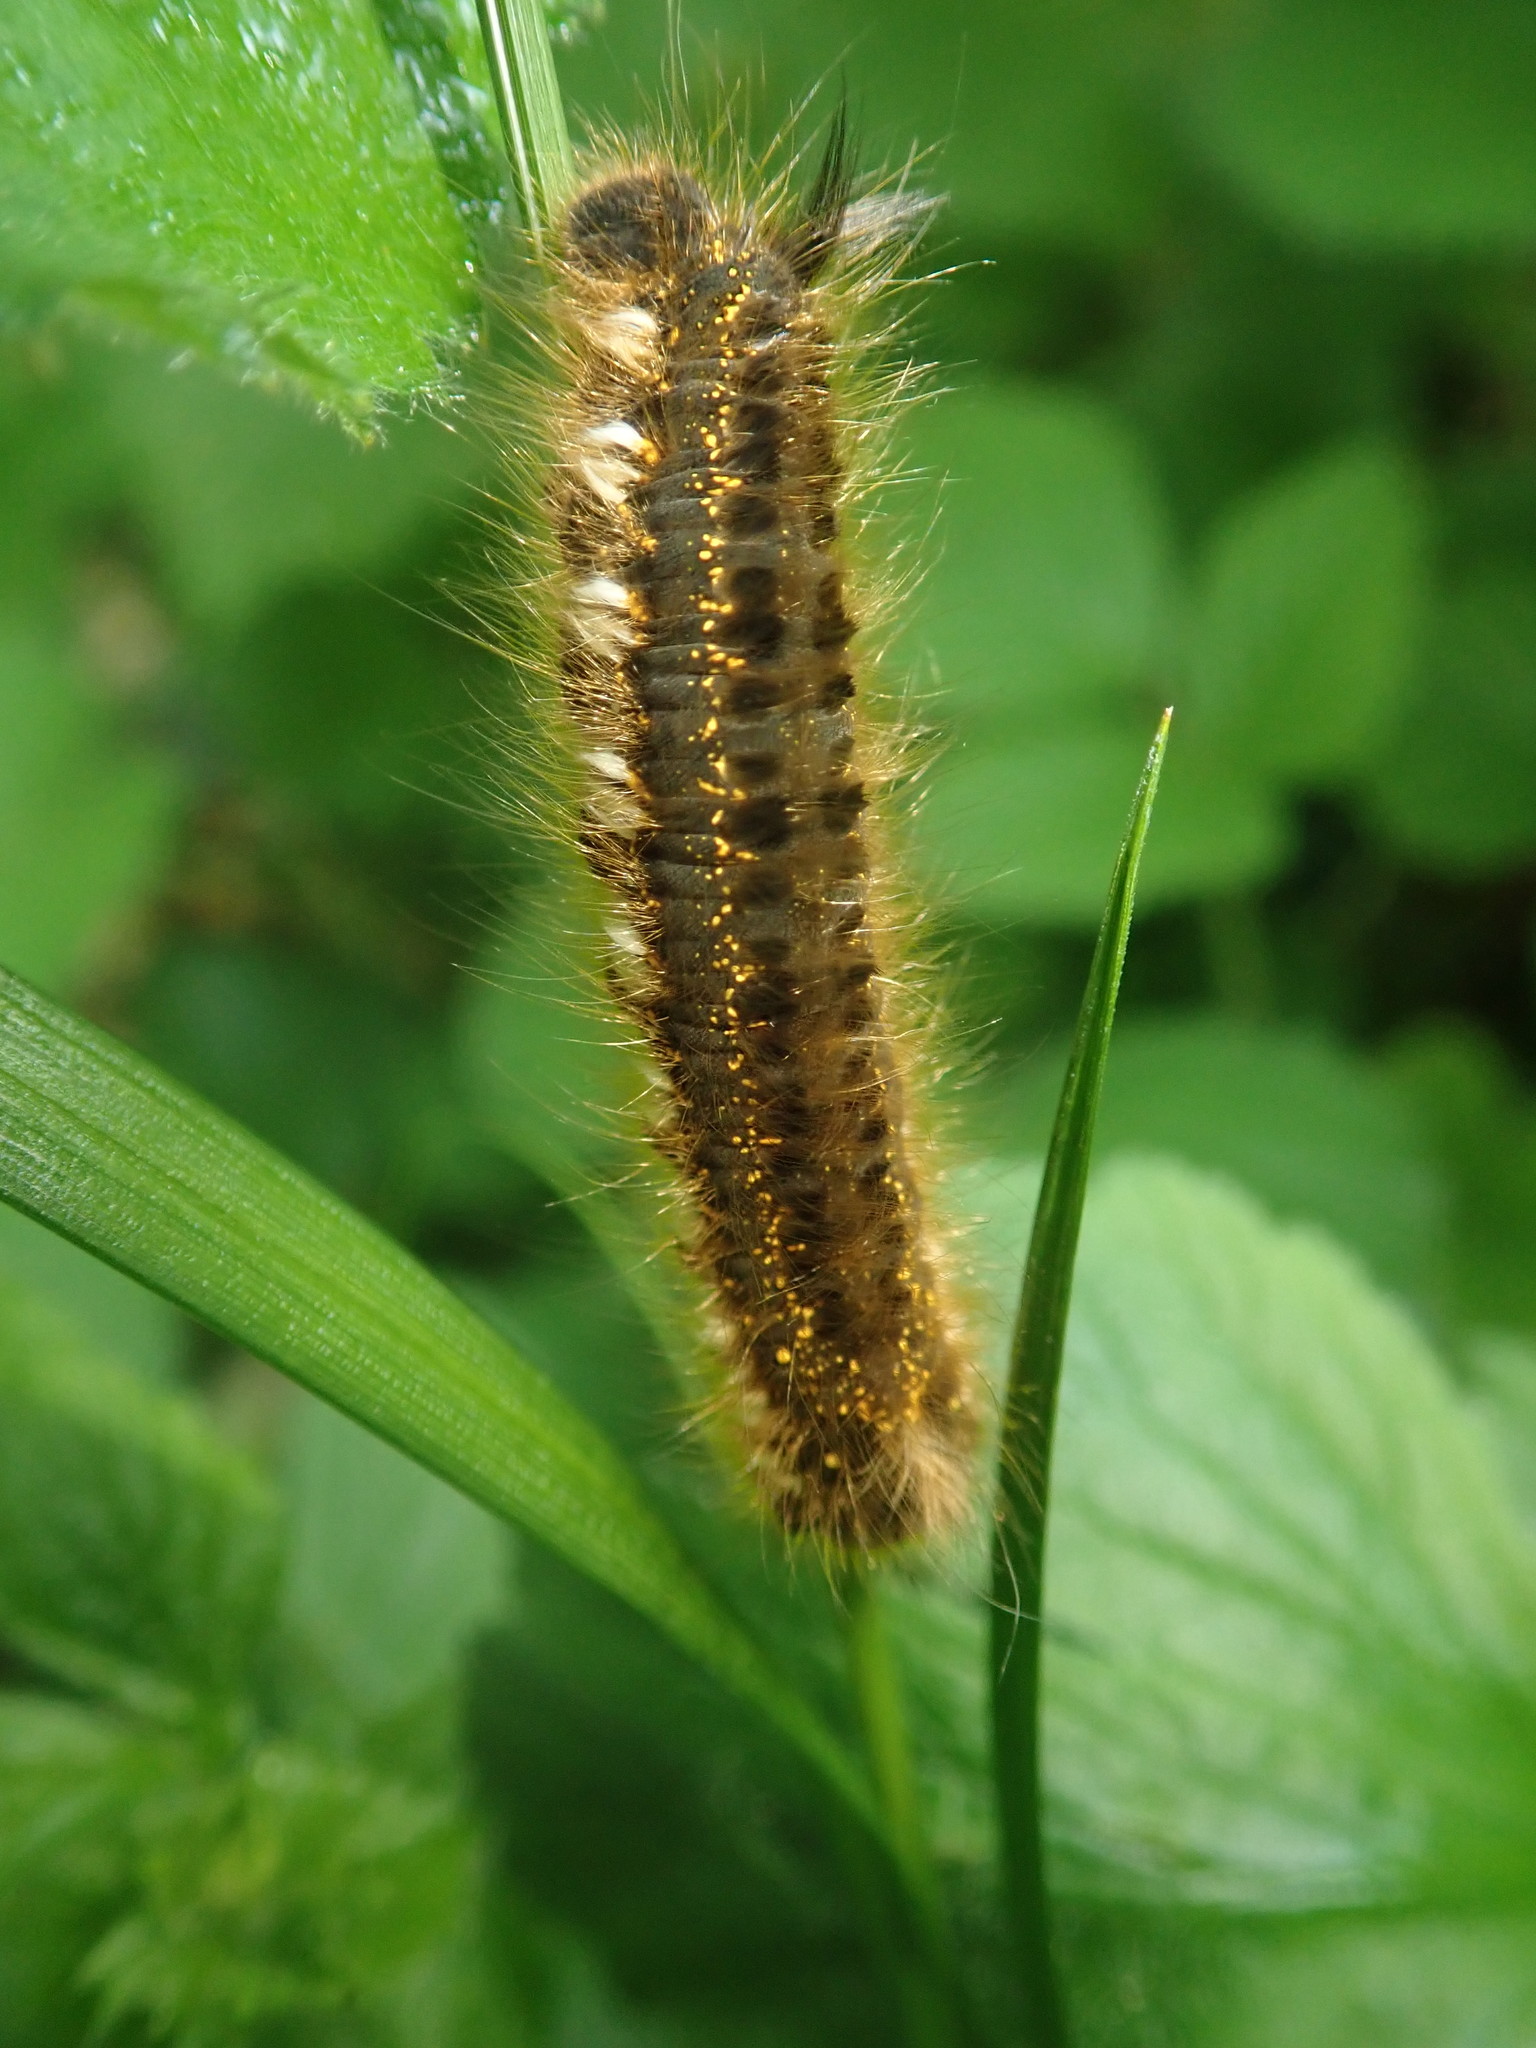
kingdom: Animalia
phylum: Arthropoda
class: Insecta
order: Lepidoptera
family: Lasiocampidae
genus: Euthrix
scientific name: Euthrix potatoria
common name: Drinker
